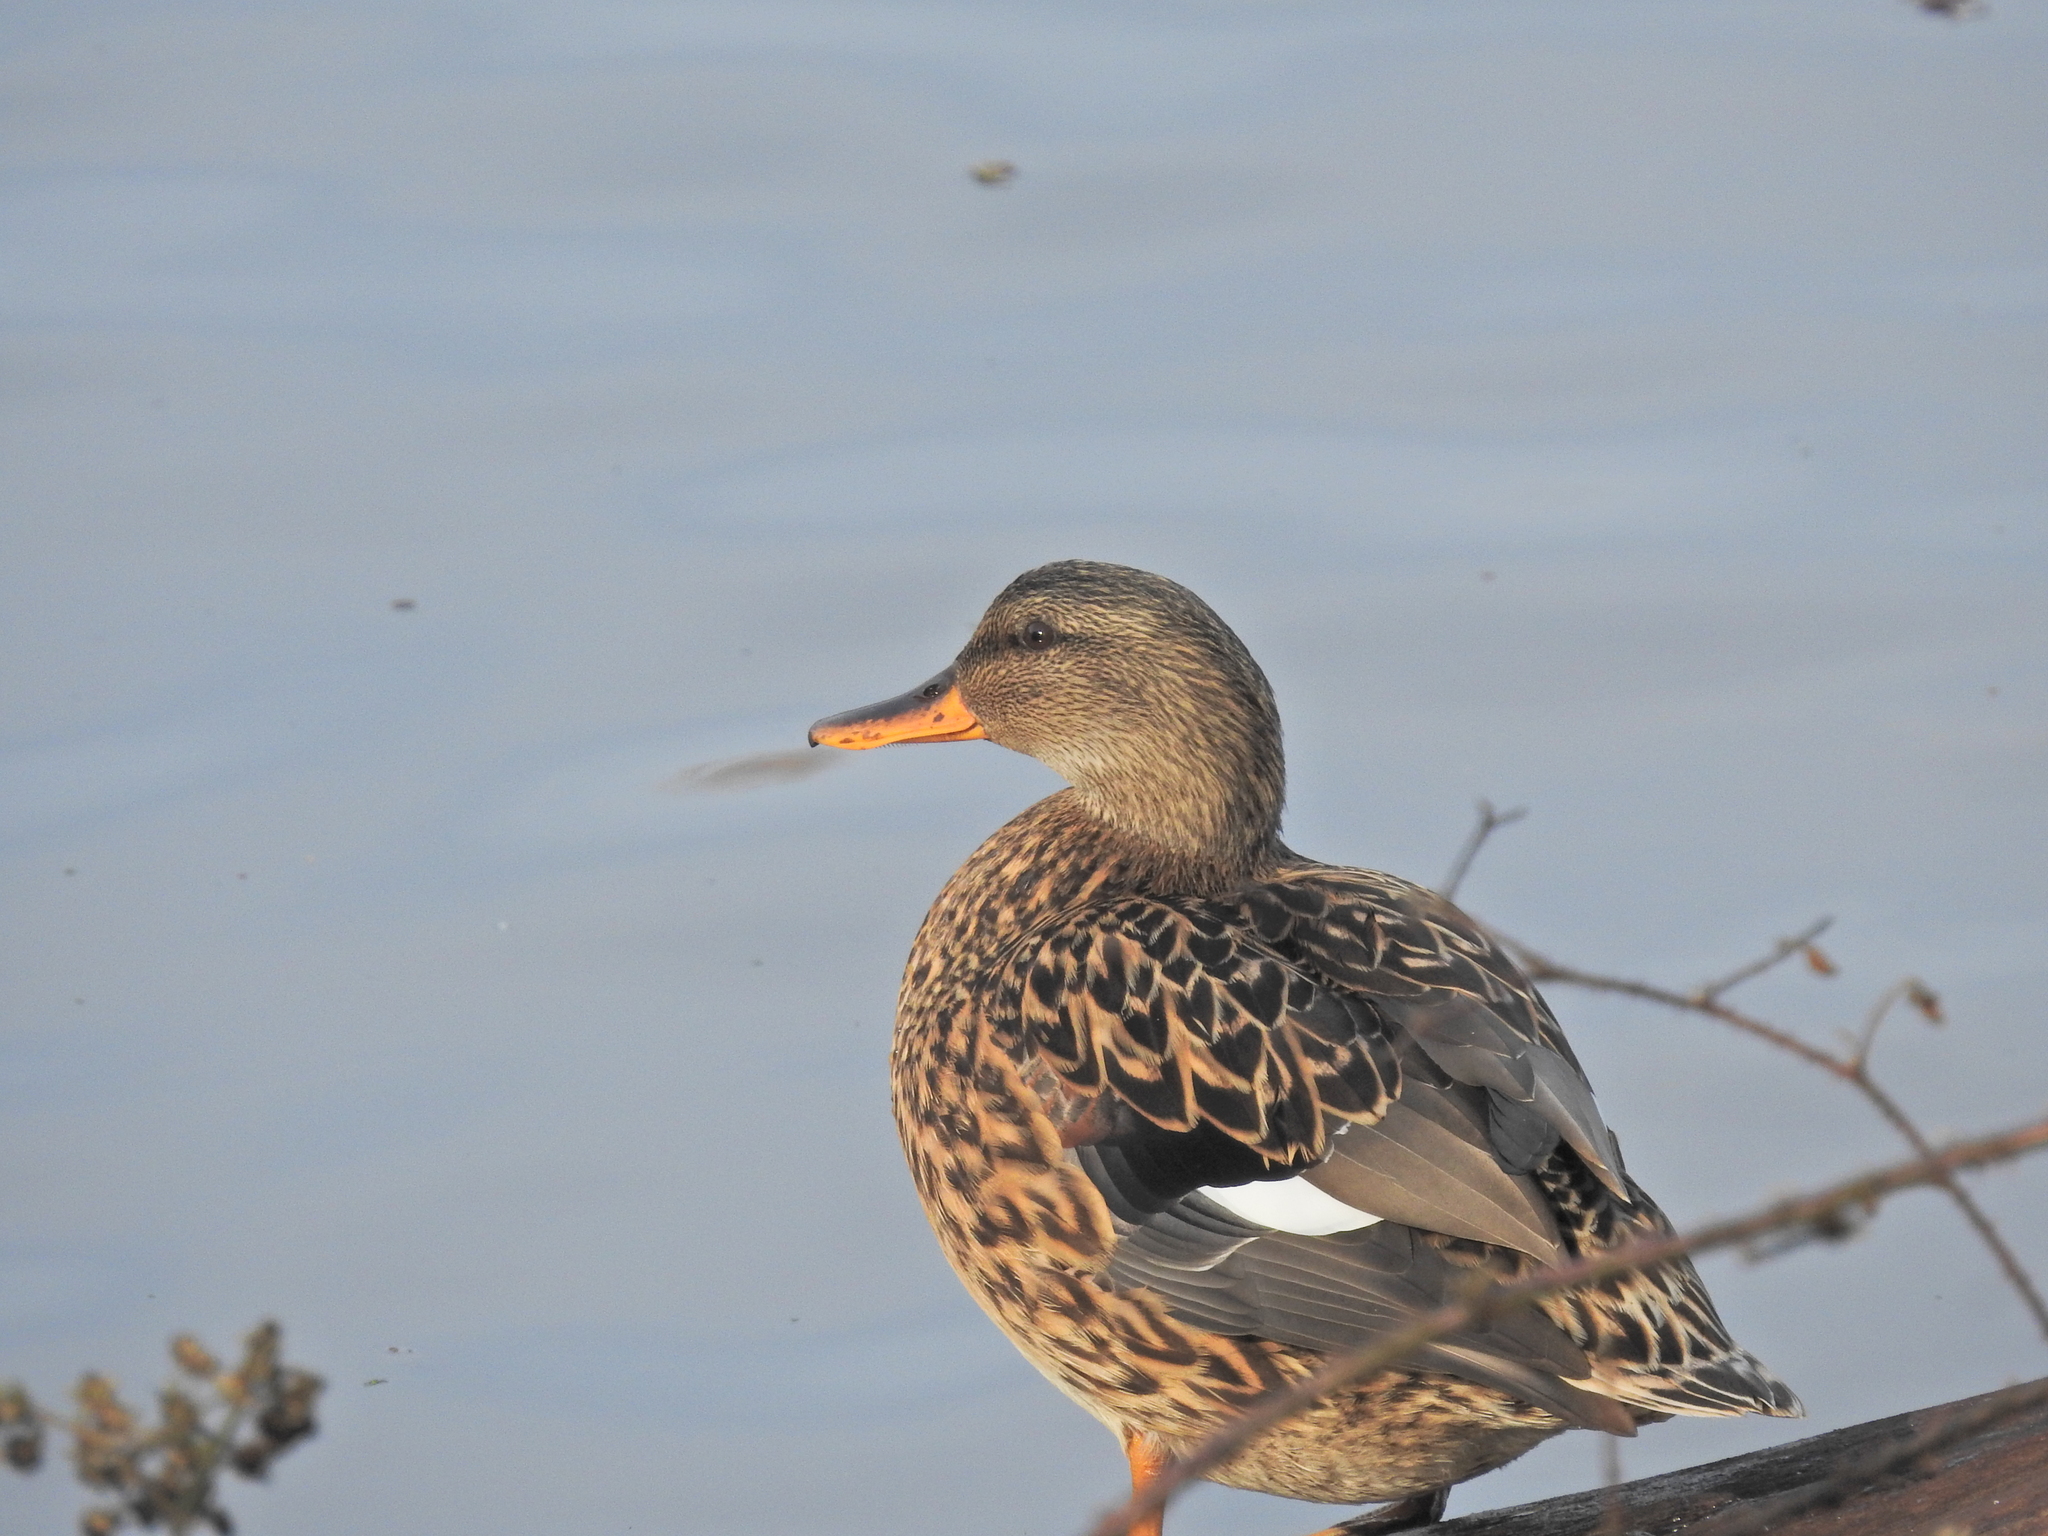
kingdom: Animalia
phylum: Chordata
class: Aves
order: Anseriformes
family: Anatidae
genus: Mareca
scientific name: Mareca strepera
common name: Gadwall
